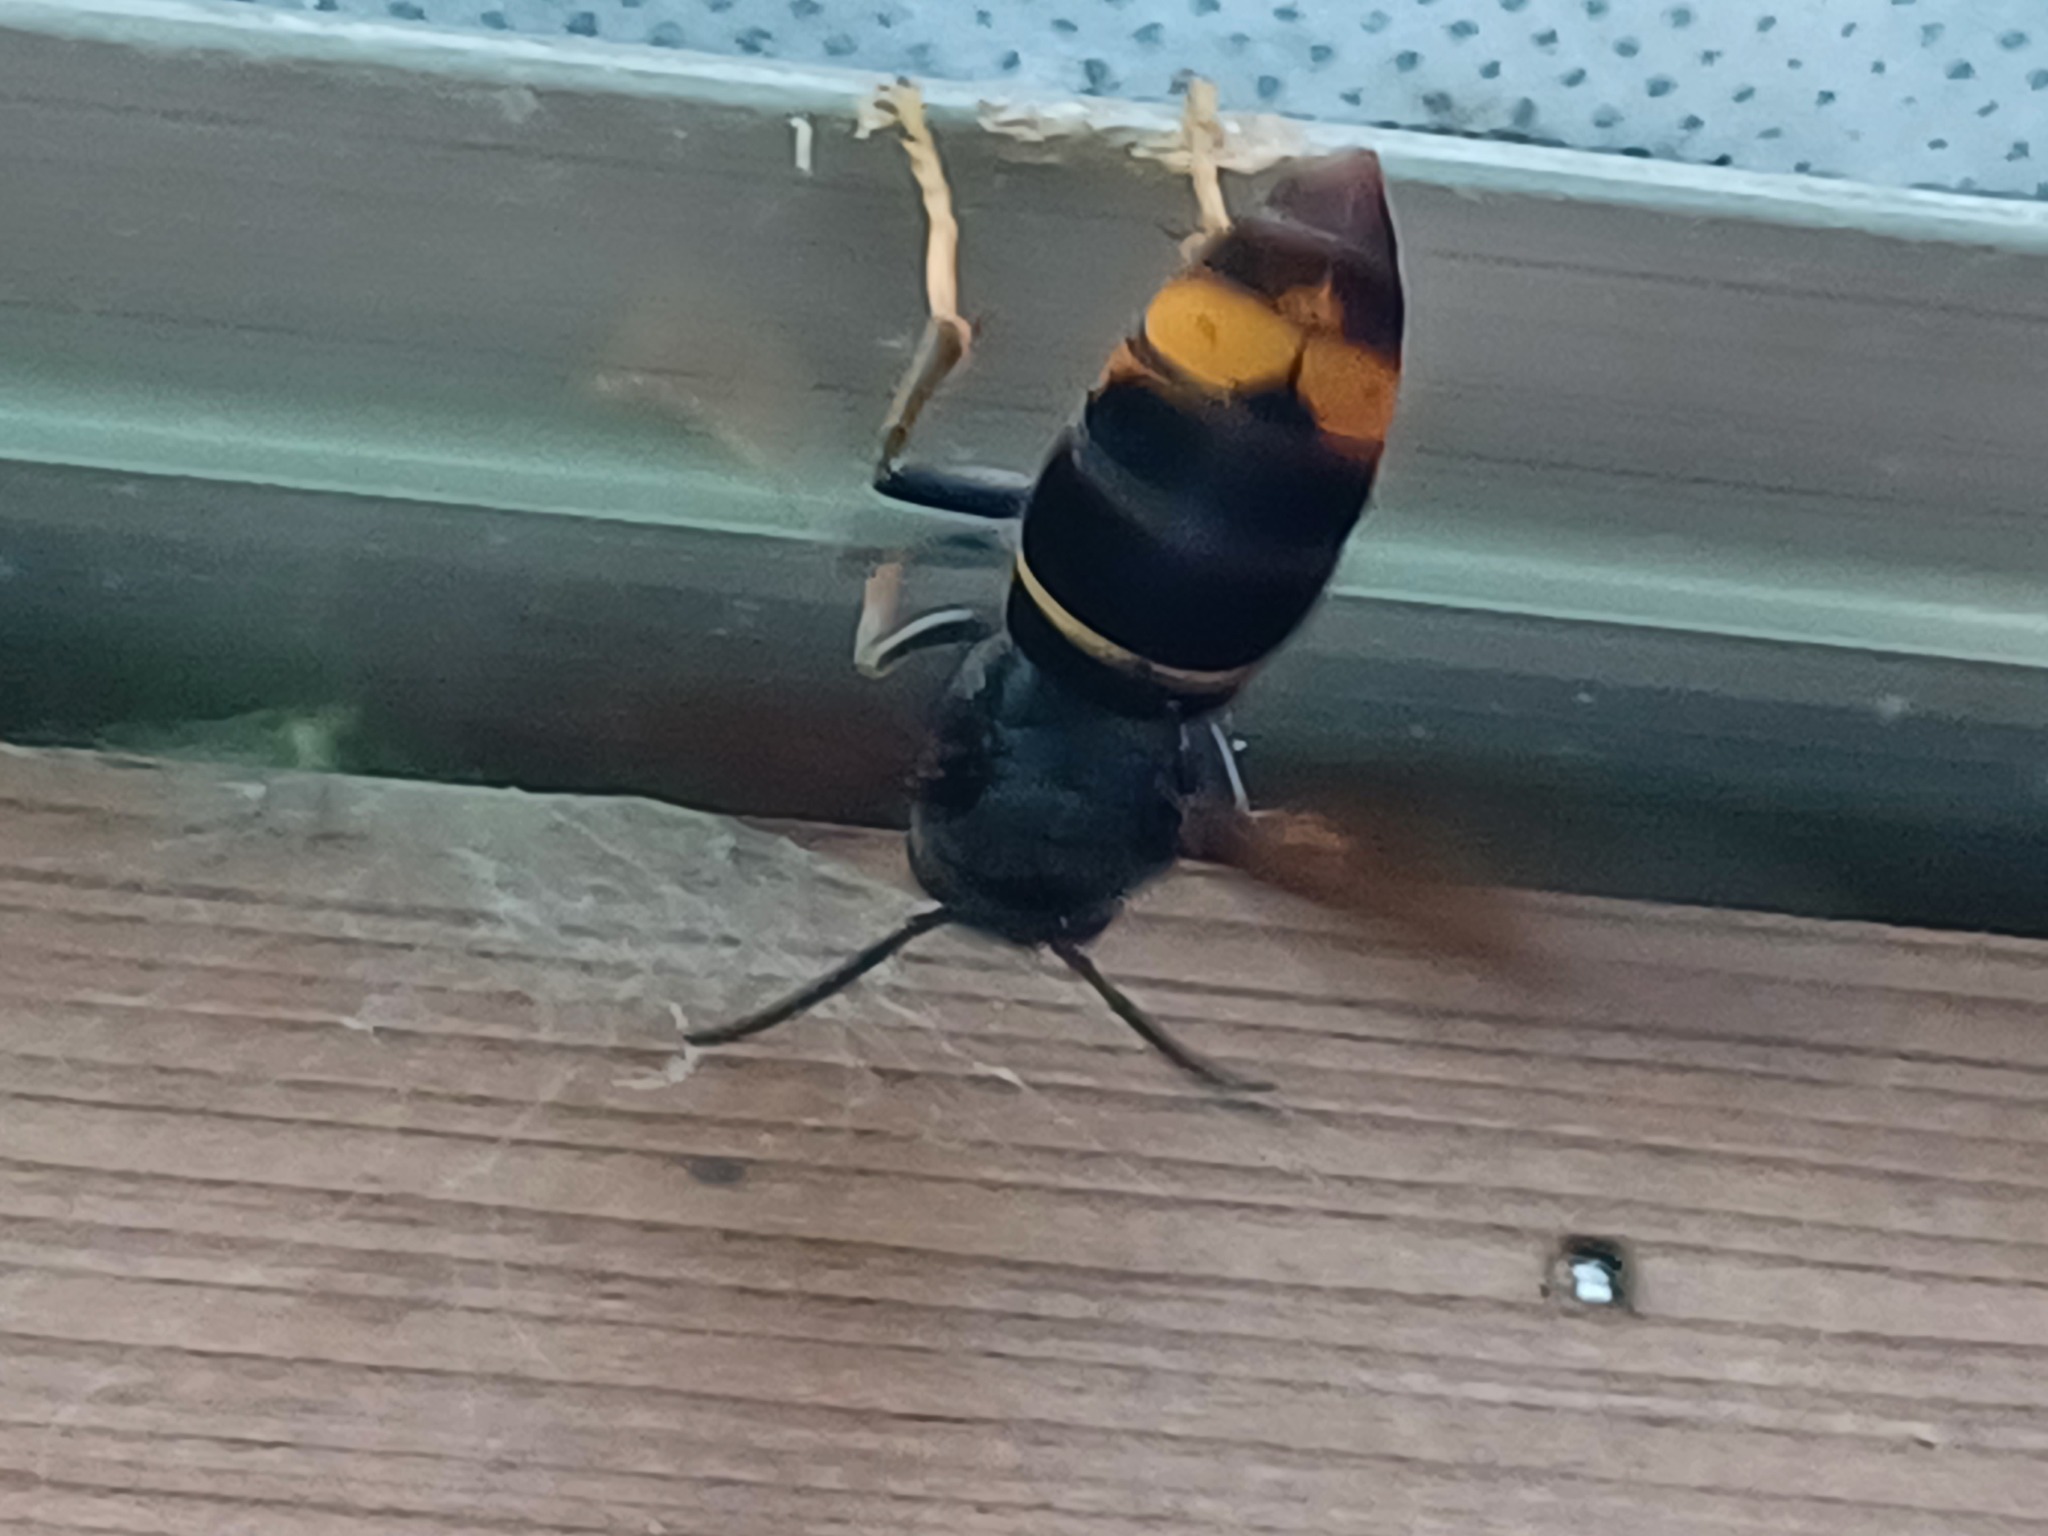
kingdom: Animalia
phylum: Arthropoda
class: Insecta
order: Hymenoptera
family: Vespidae
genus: Vespa
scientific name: Vespa velutina
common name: Asian hornet
